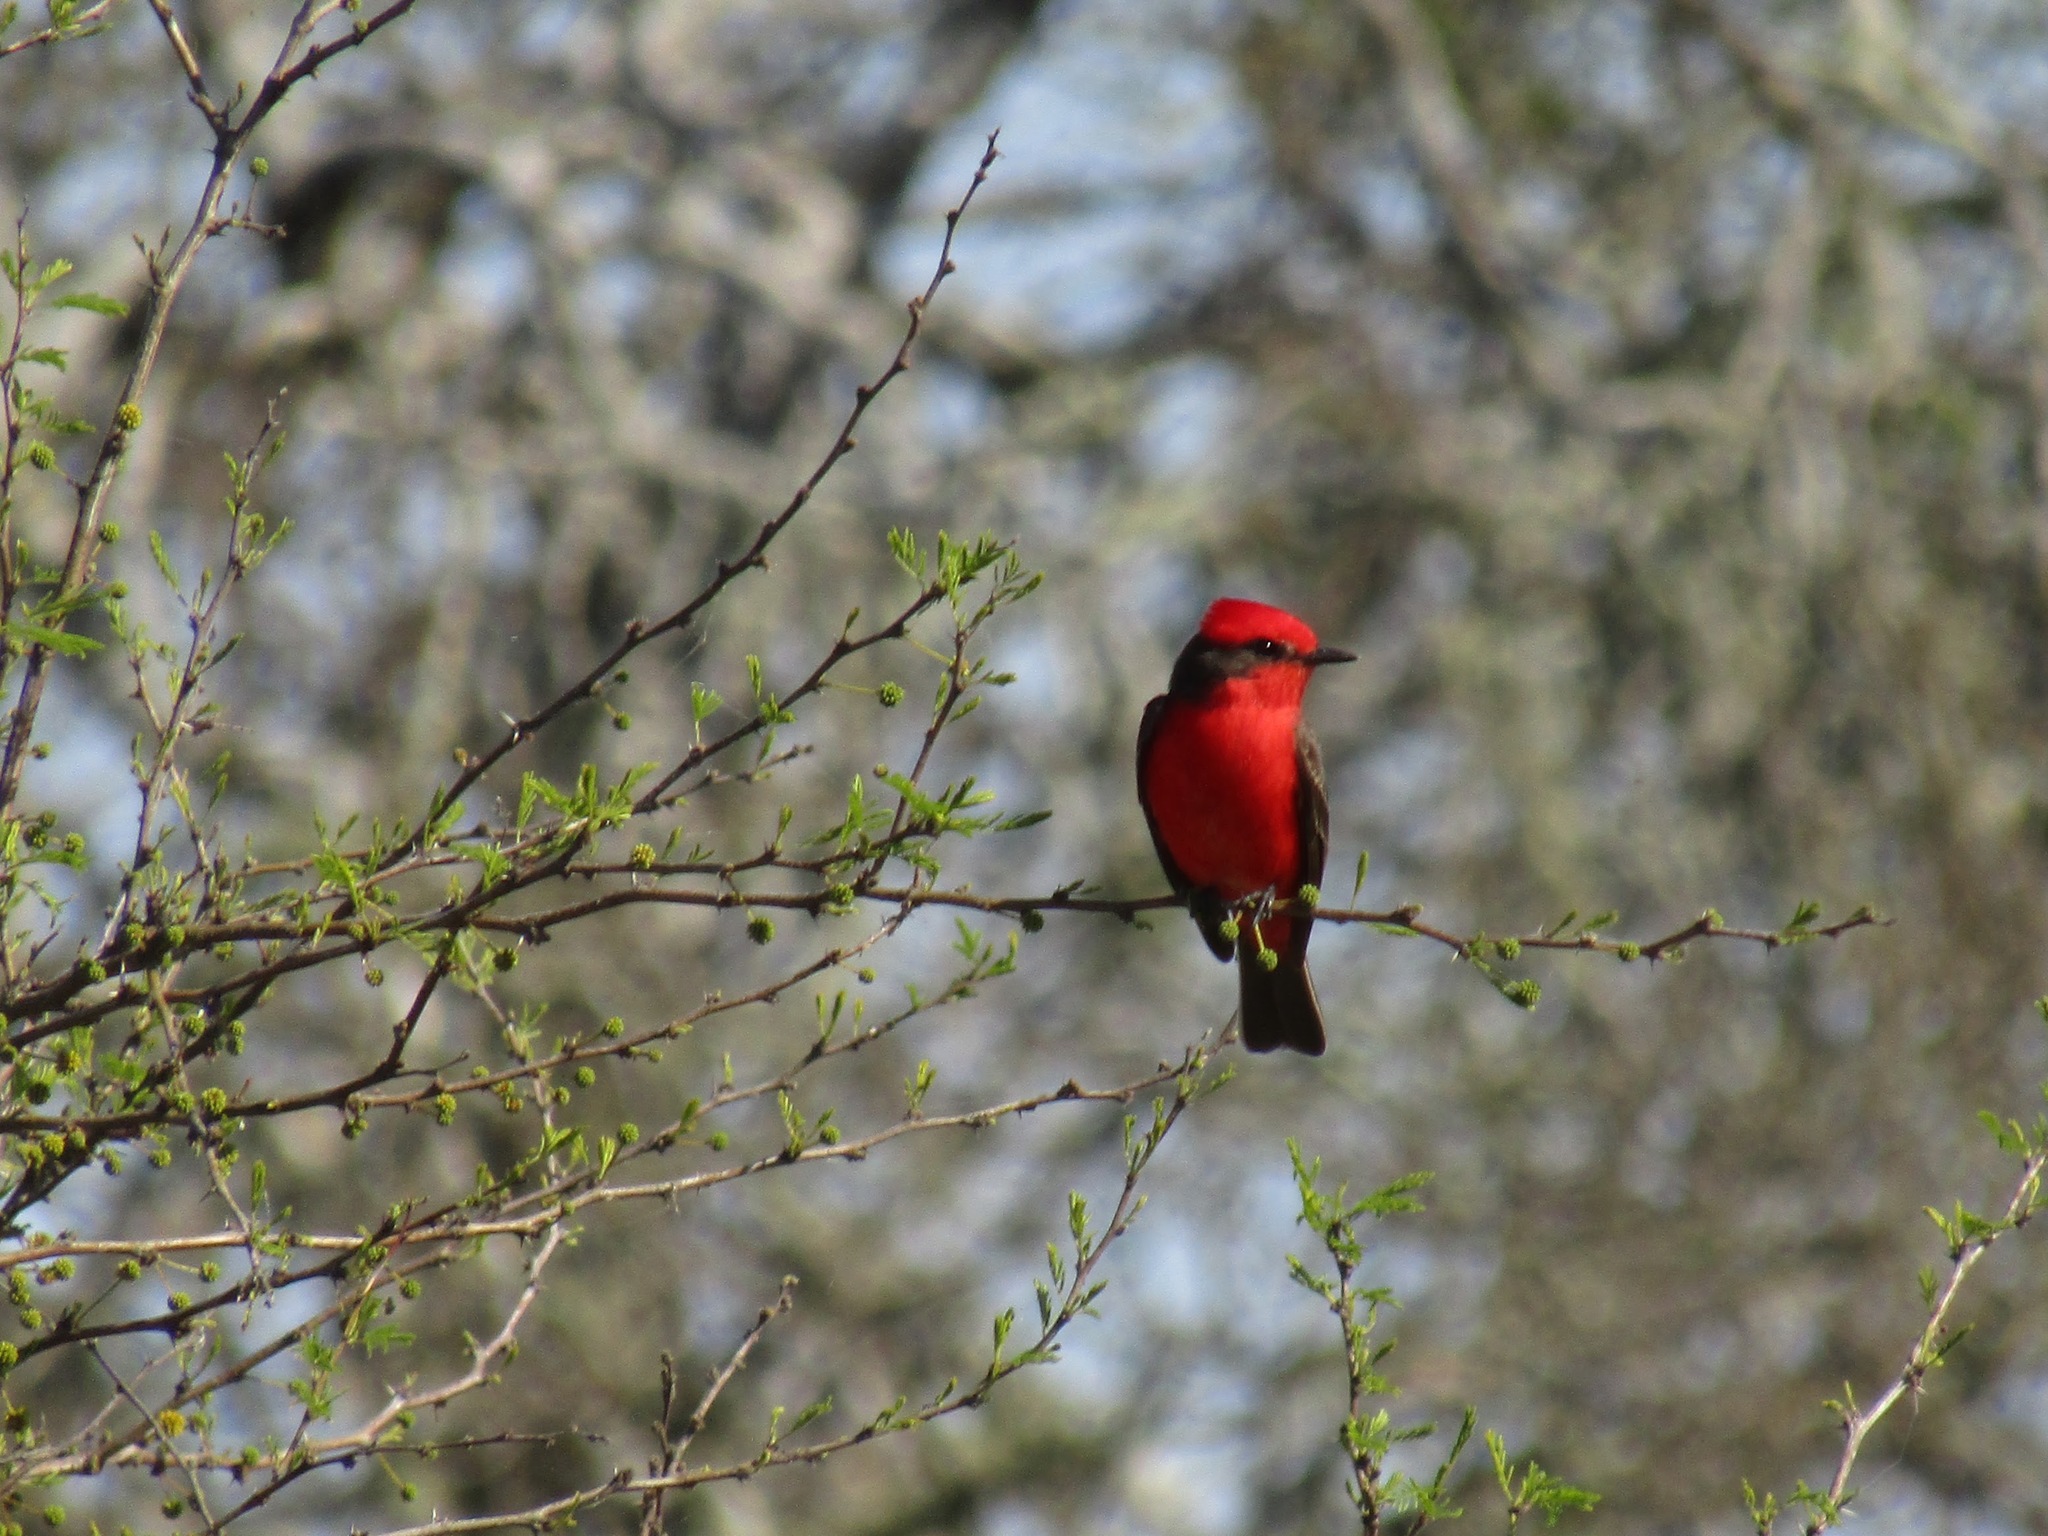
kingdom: Animalia
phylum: Chordata
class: Aves
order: Passeriformes
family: Tyrannidae
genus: Pyrocephalus
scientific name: Pyrocephalus rubinus
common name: Vermilion flycatcher
